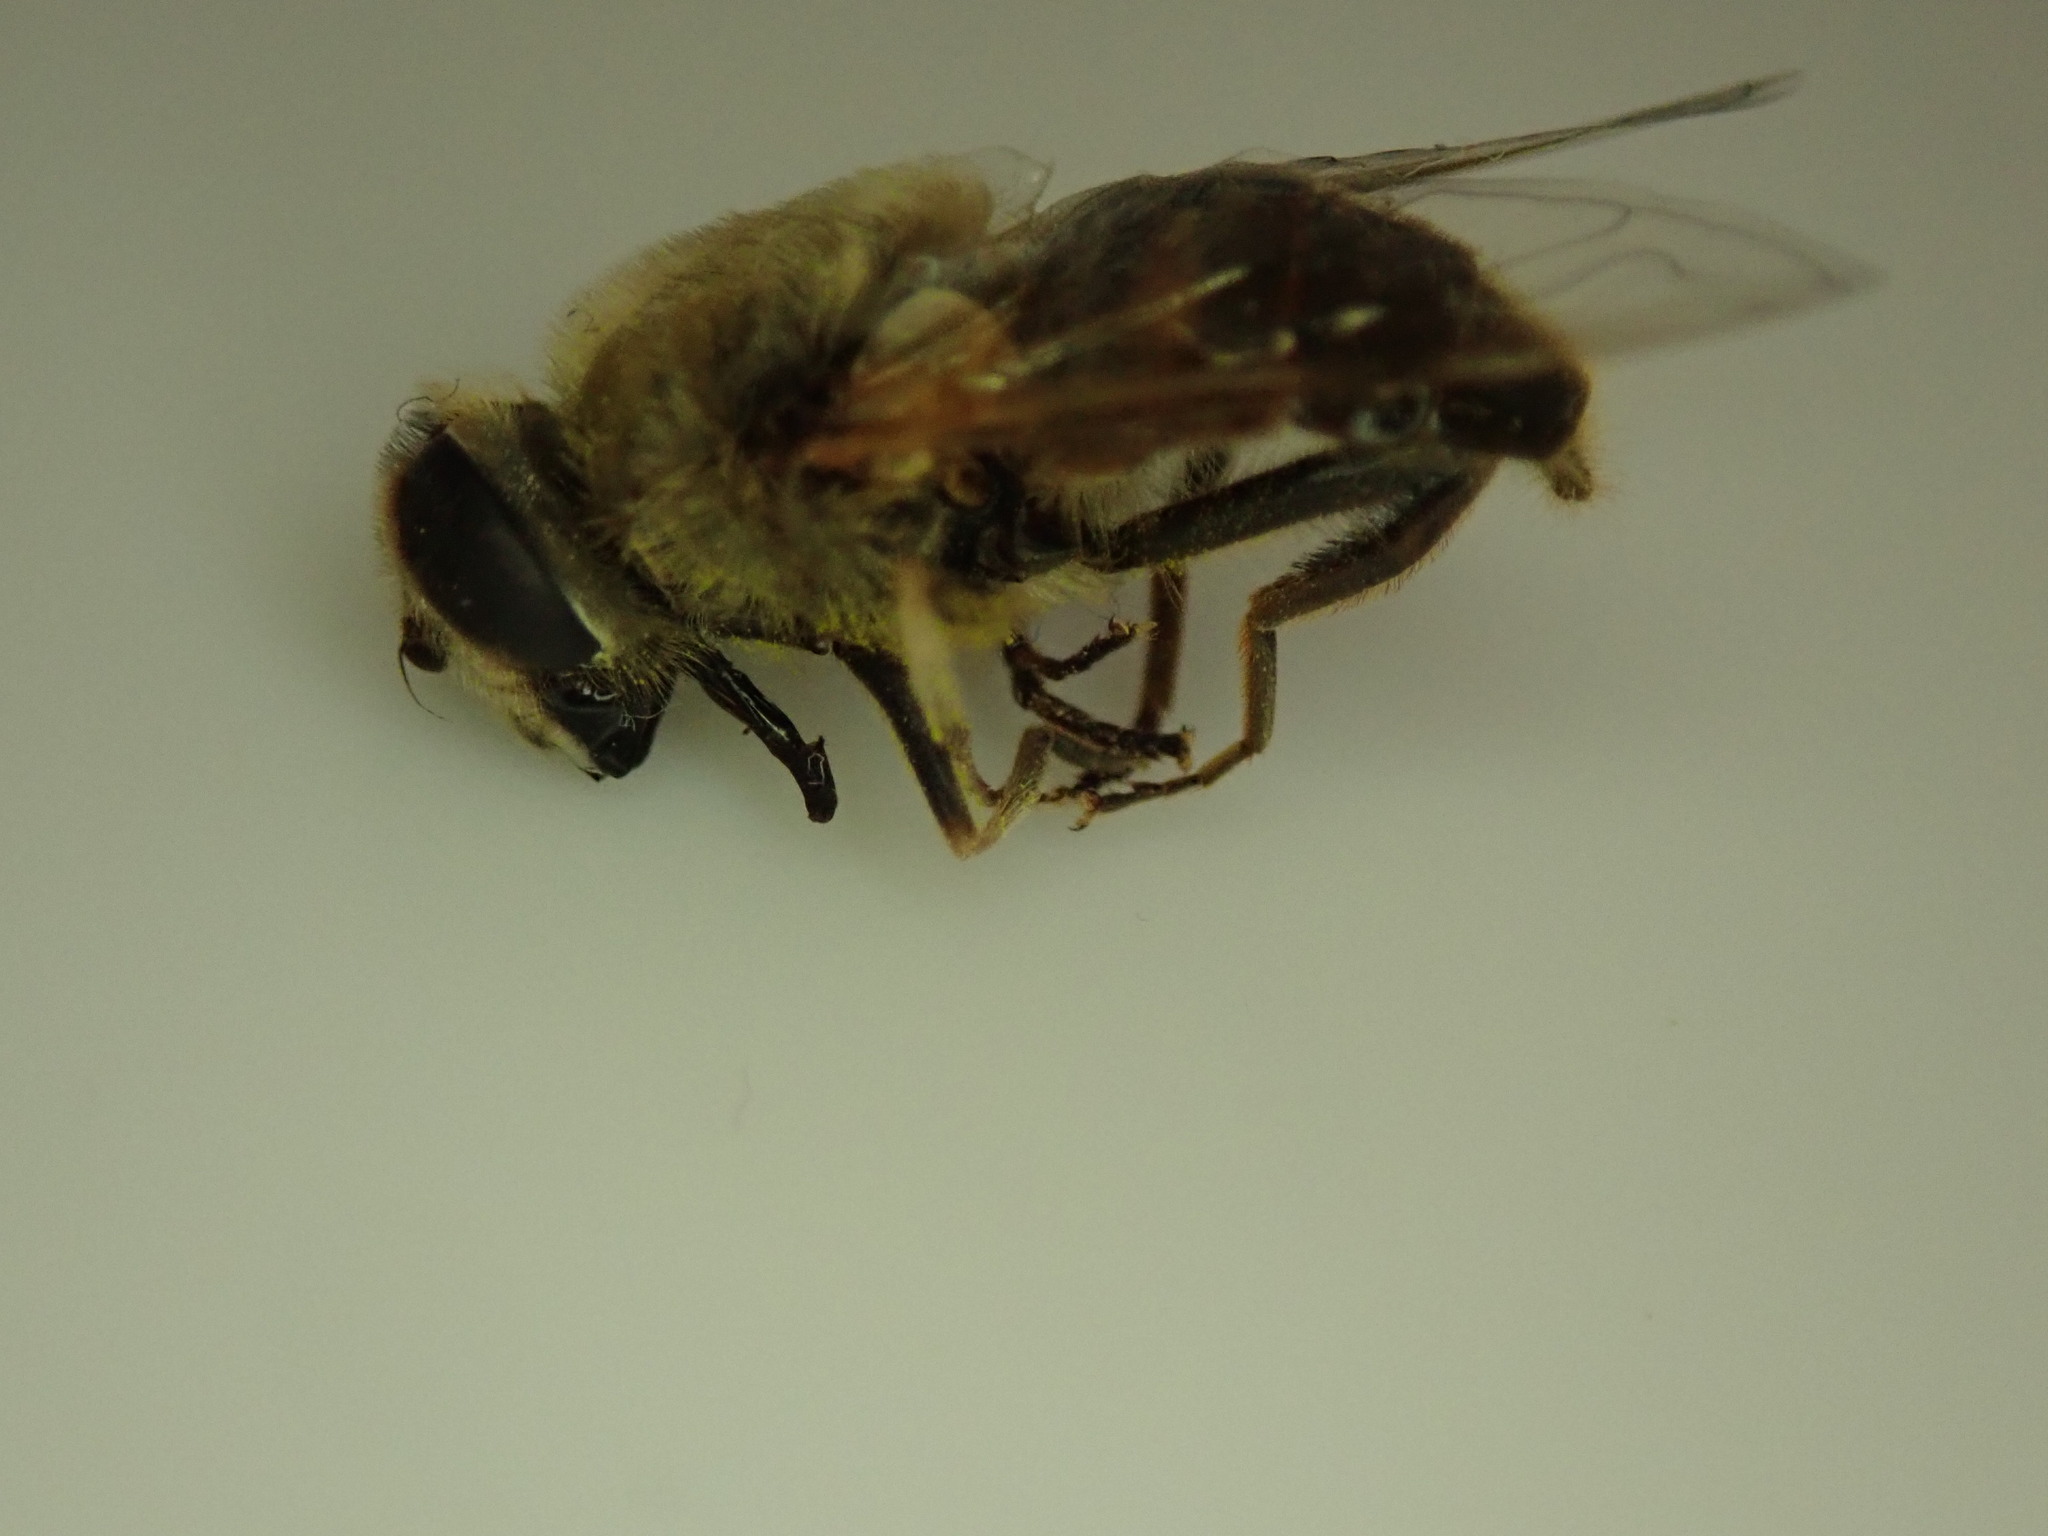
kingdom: Animalia
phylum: Arthropoda
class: Insecta
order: Diptera
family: Syrphidae
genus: Eristalis
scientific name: Eristalis tenax
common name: Drone fly
